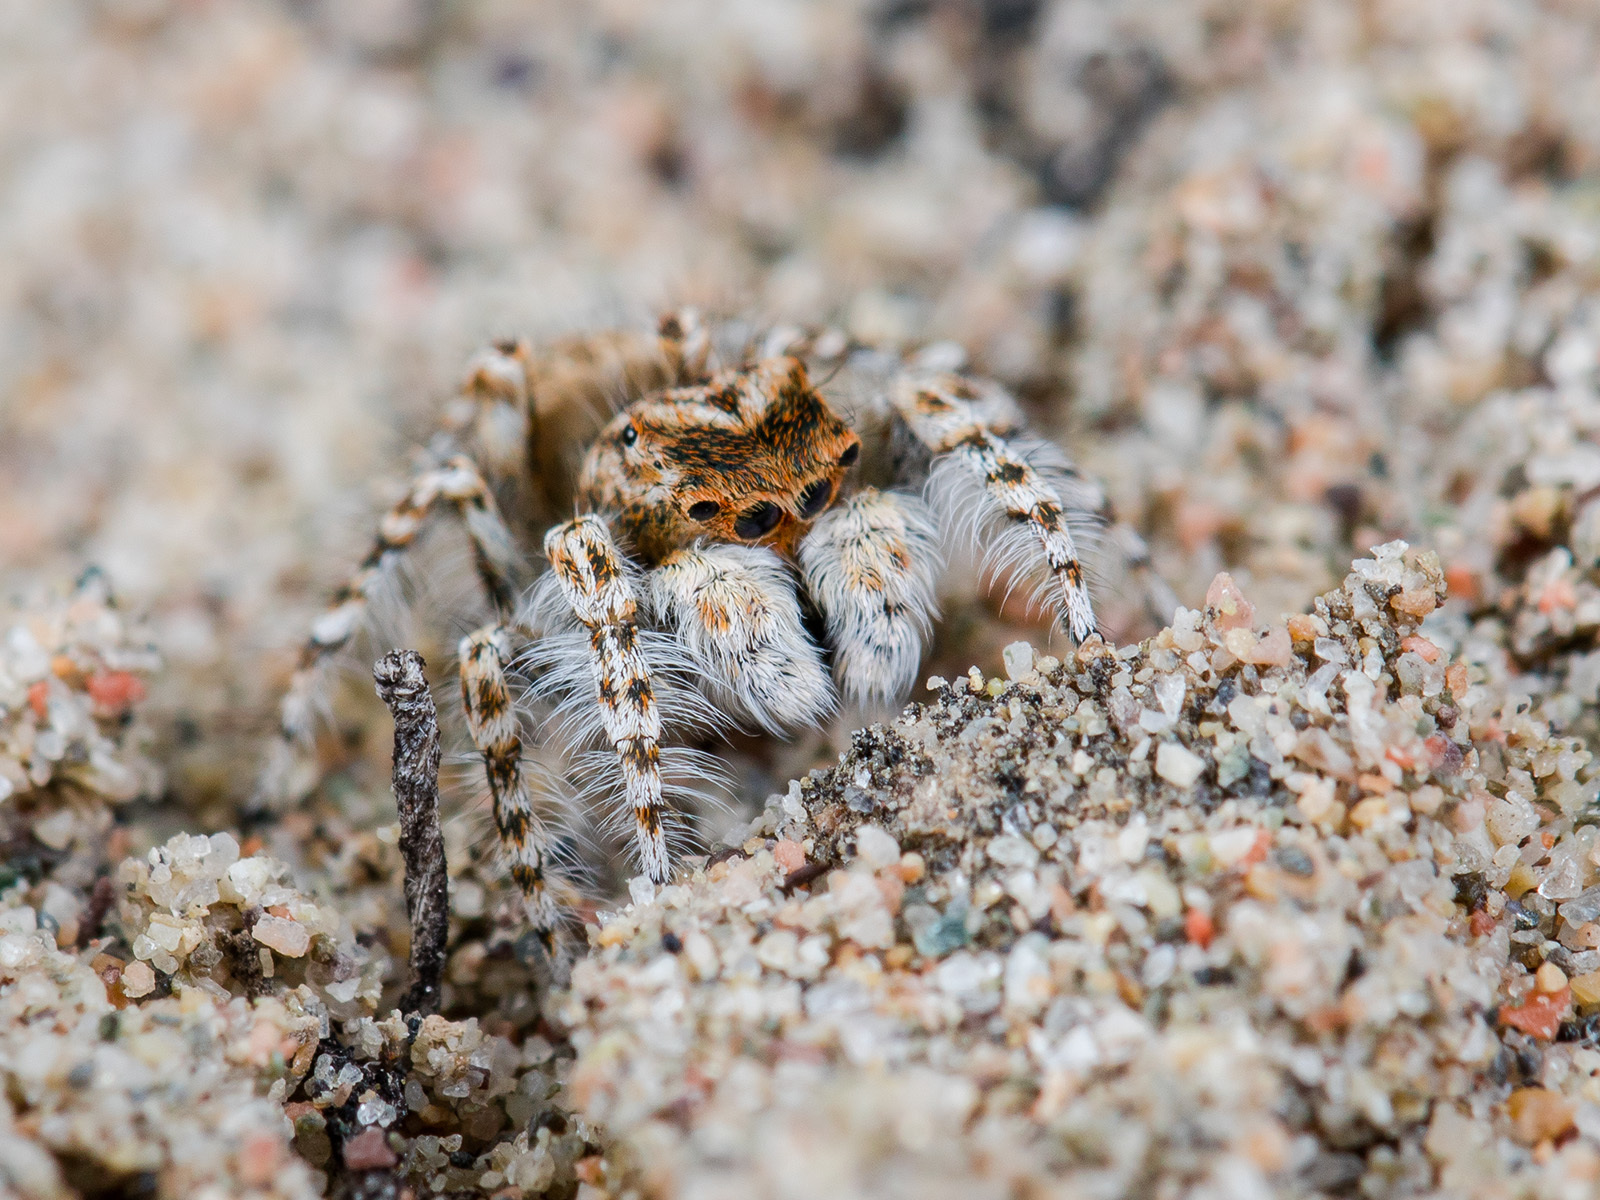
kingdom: Animalia
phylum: Arthropoda
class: Arachnida
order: Araneae
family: Salticidae
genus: Yllenus
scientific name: Yllenus uiguricus
